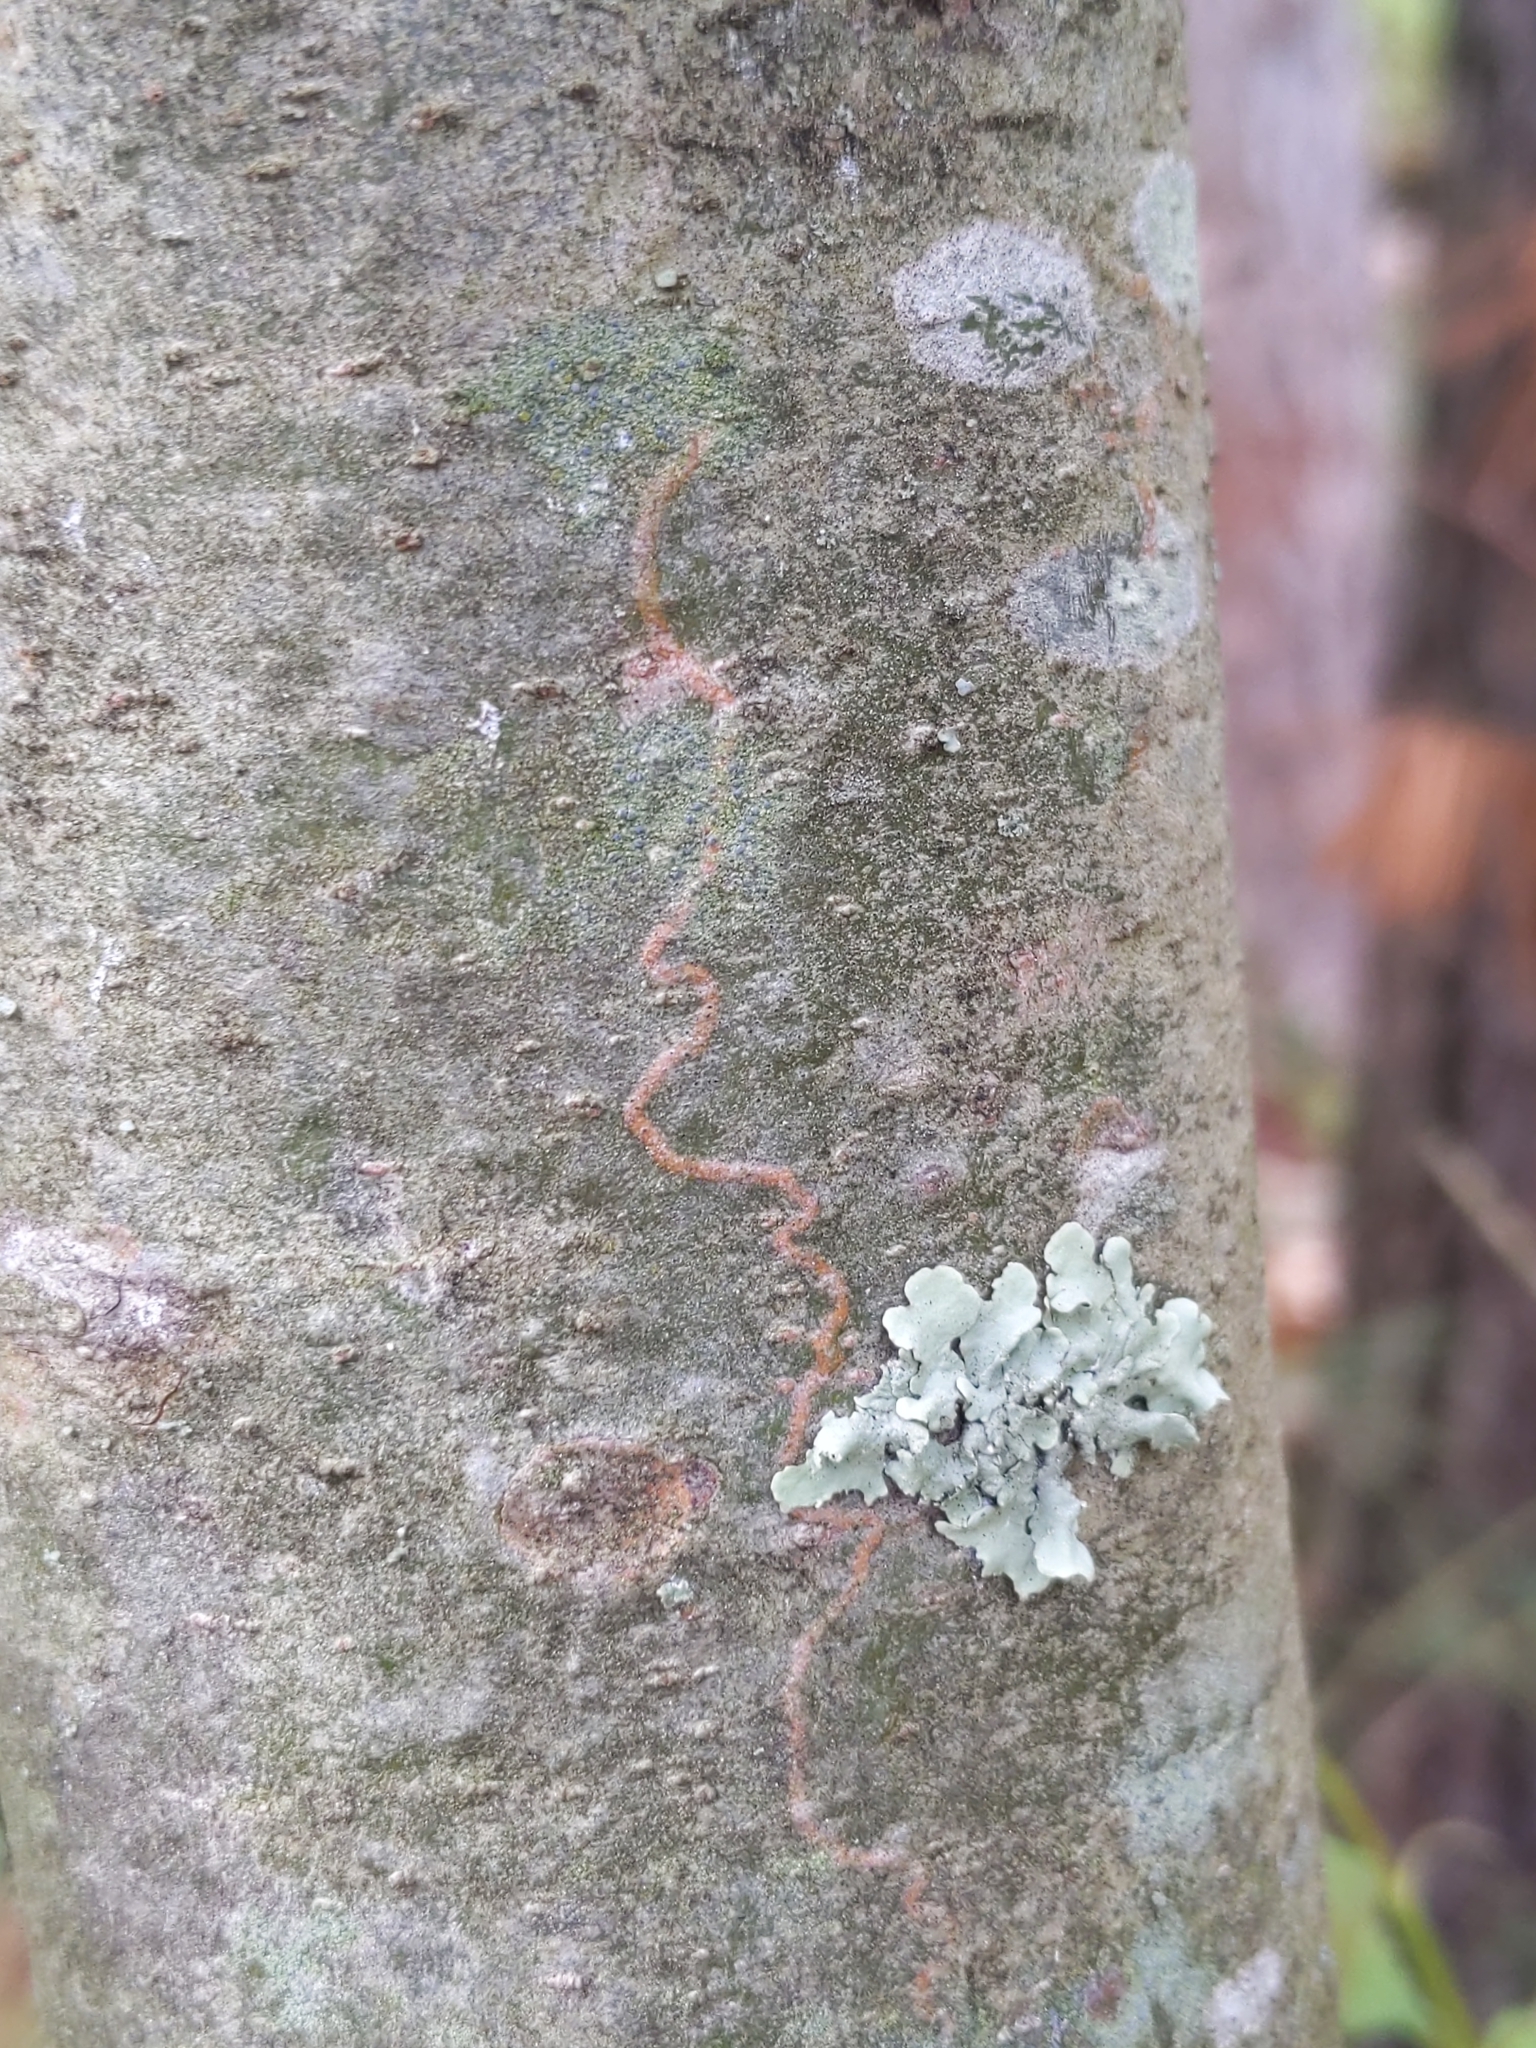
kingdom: Animalia
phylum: Arthropoda
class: Insecta
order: Lepidoptera
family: Gracillariidae
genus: Marmara
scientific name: Marmara fasciella
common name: White pine barkminer moth
